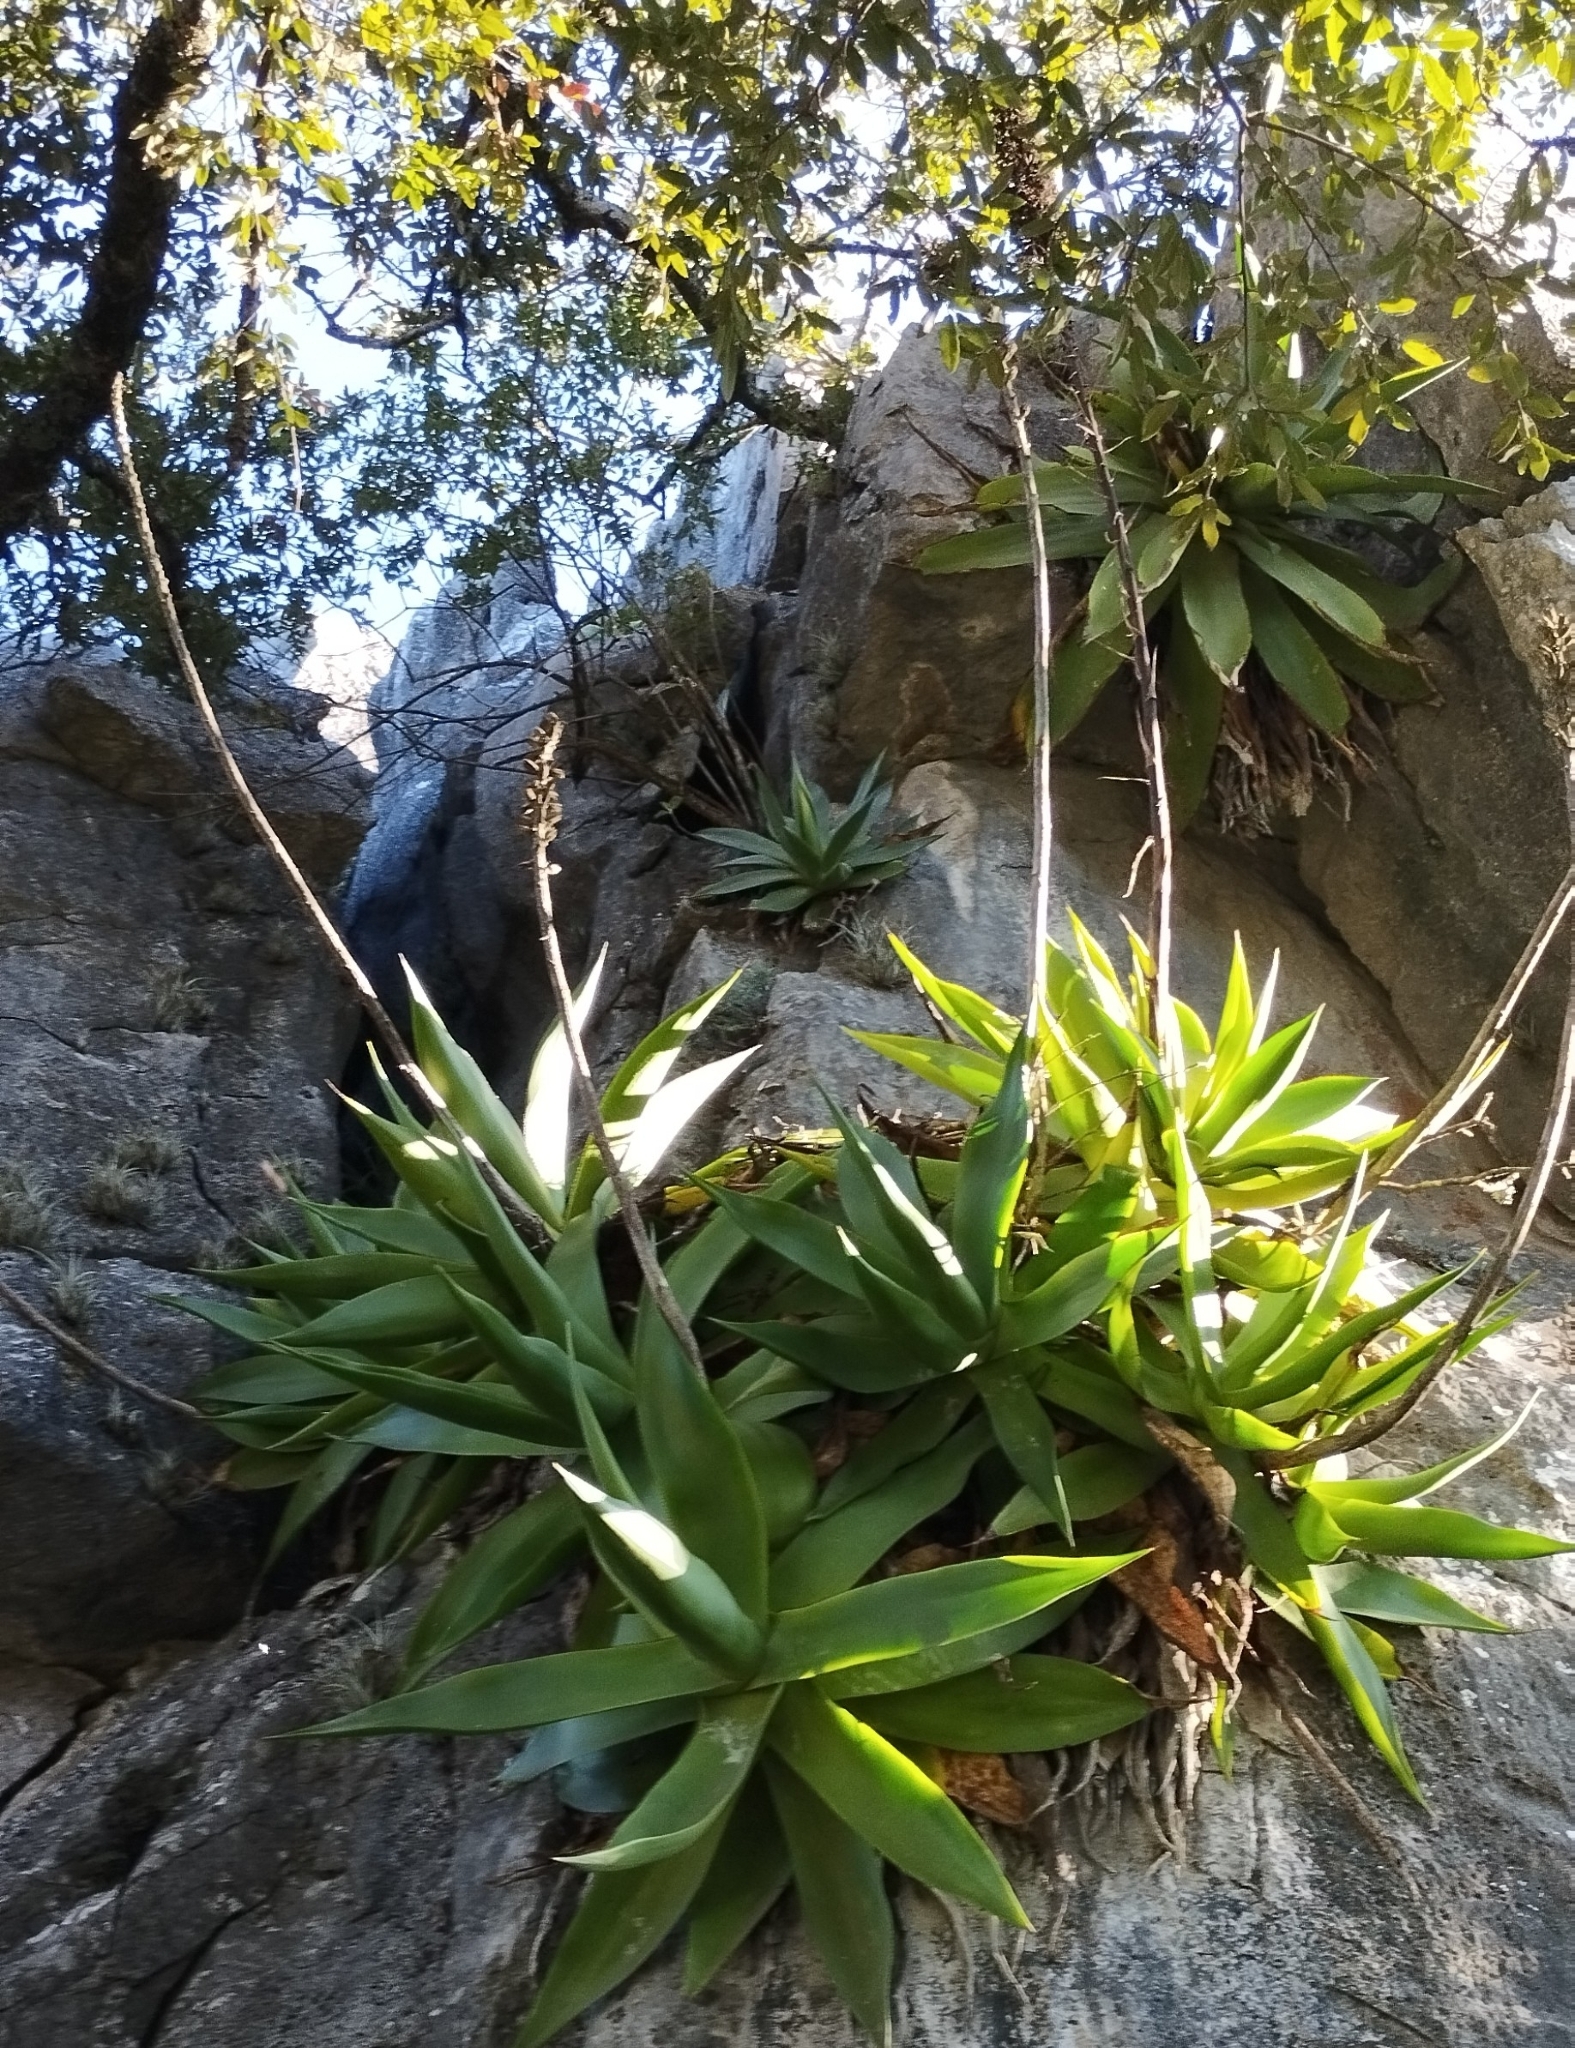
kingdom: Plantae
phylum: Tracheophyta
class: Liliopsida
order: Asparagales
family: Asparagaceae
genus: Agave
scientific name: Agave mitis
